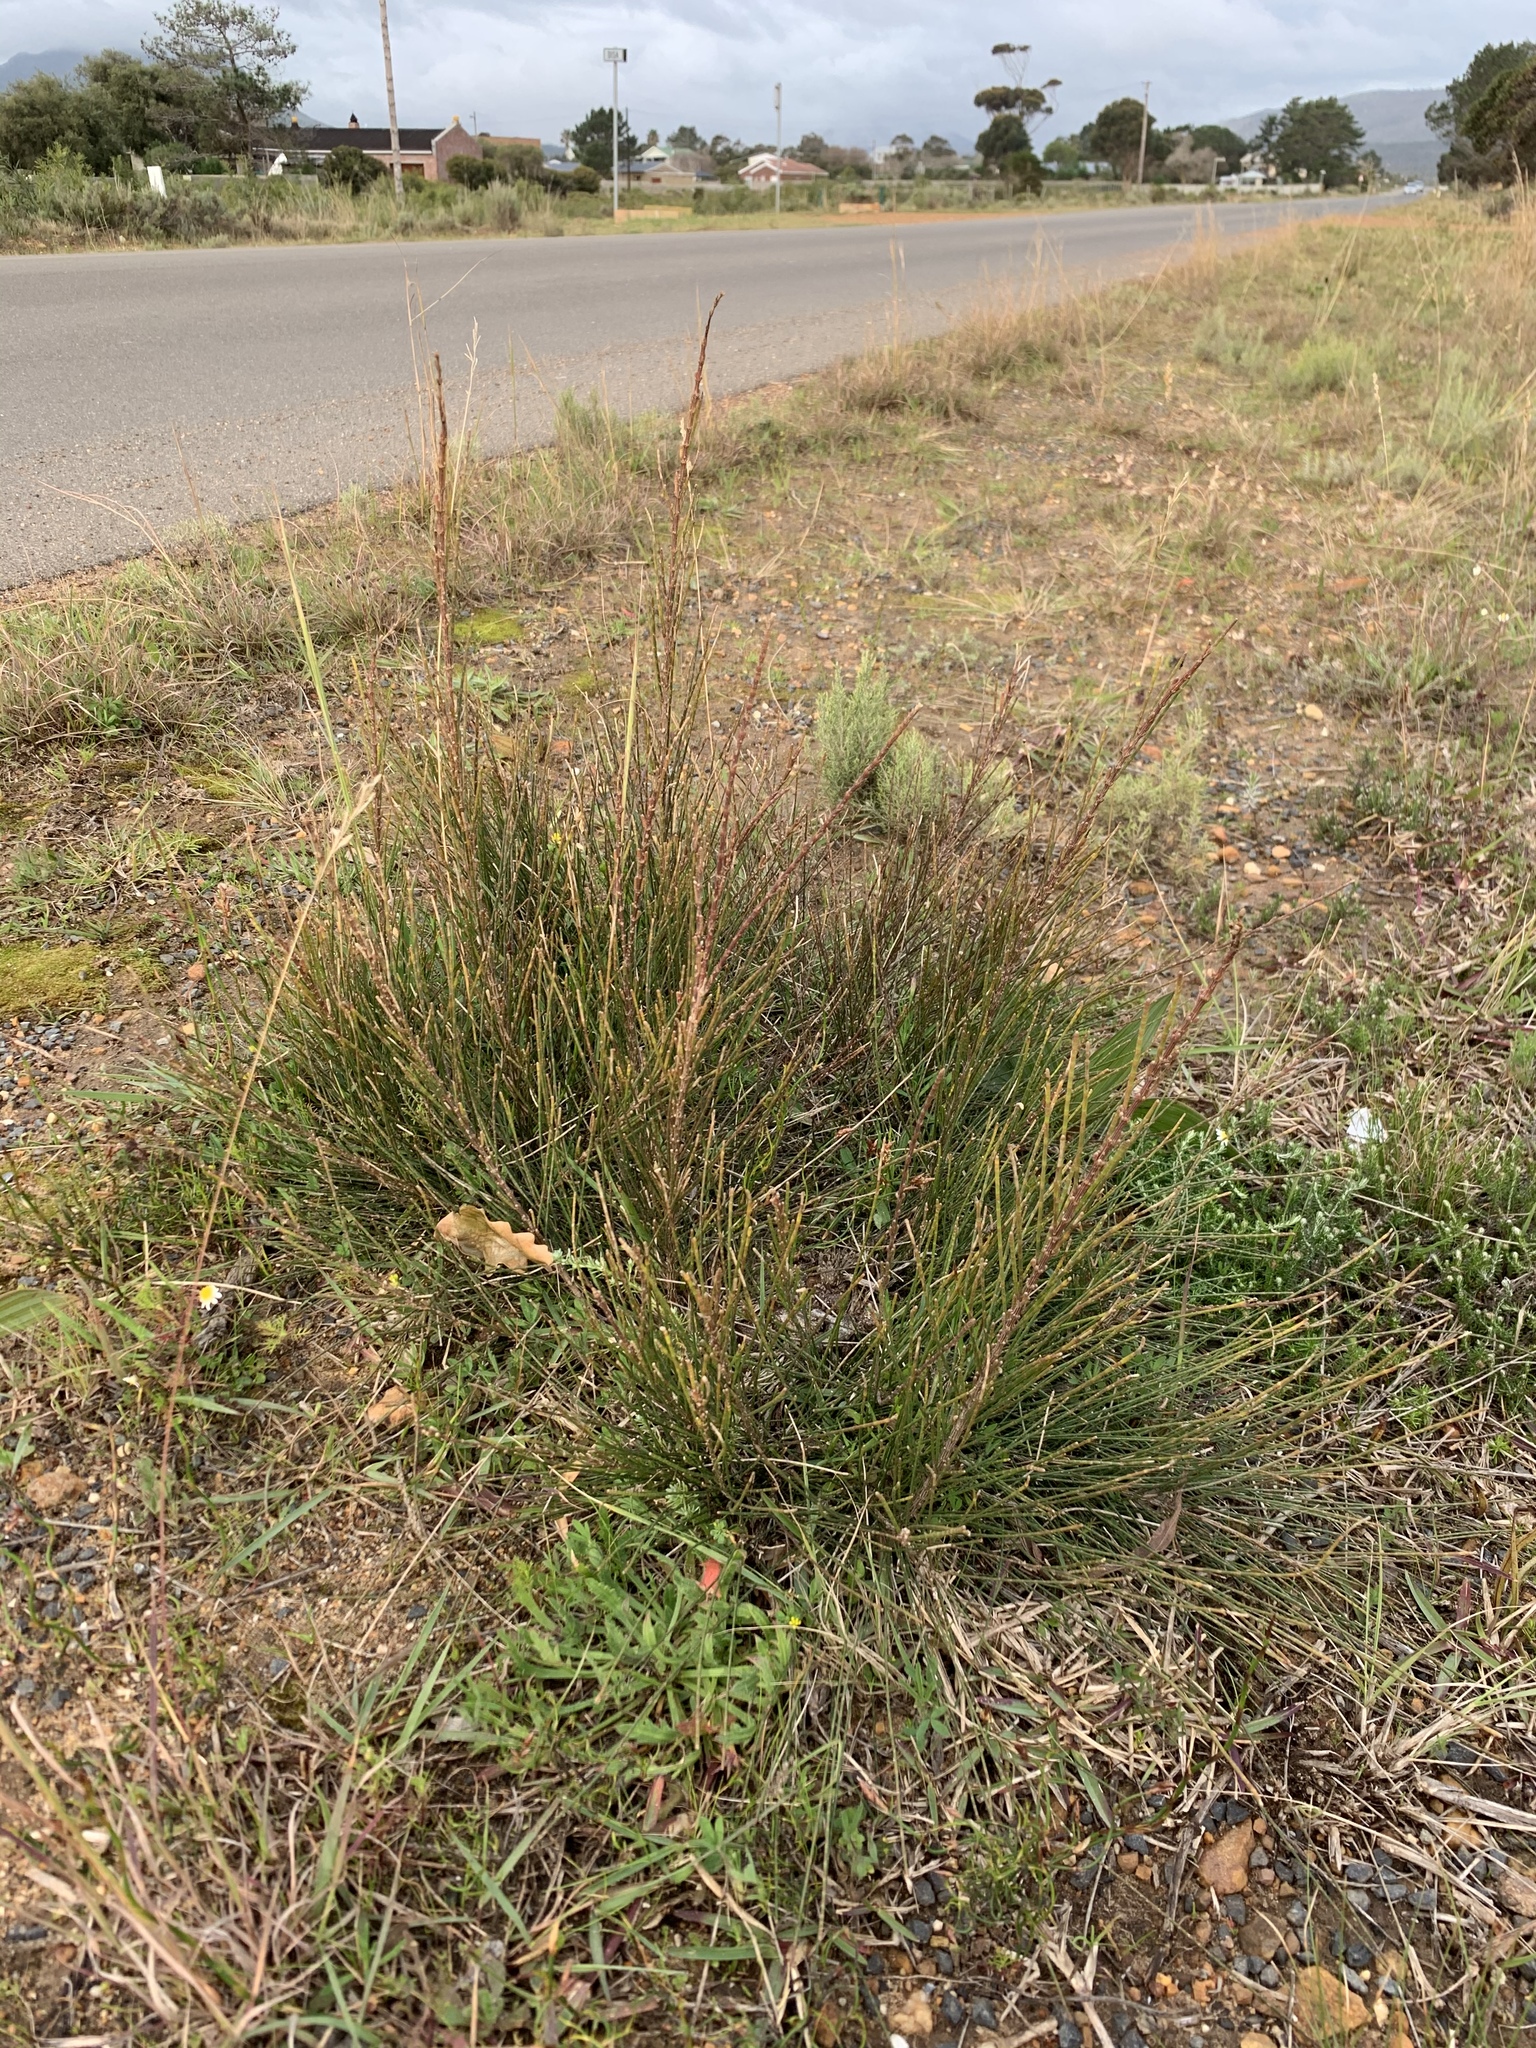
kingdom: Plantae
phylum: Tracheophyta
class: Magnoliopsida
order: Fagales
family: Casuarinaceae
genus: Casuarina
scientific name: Casuarina cunninghamiana
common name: River sheoak
